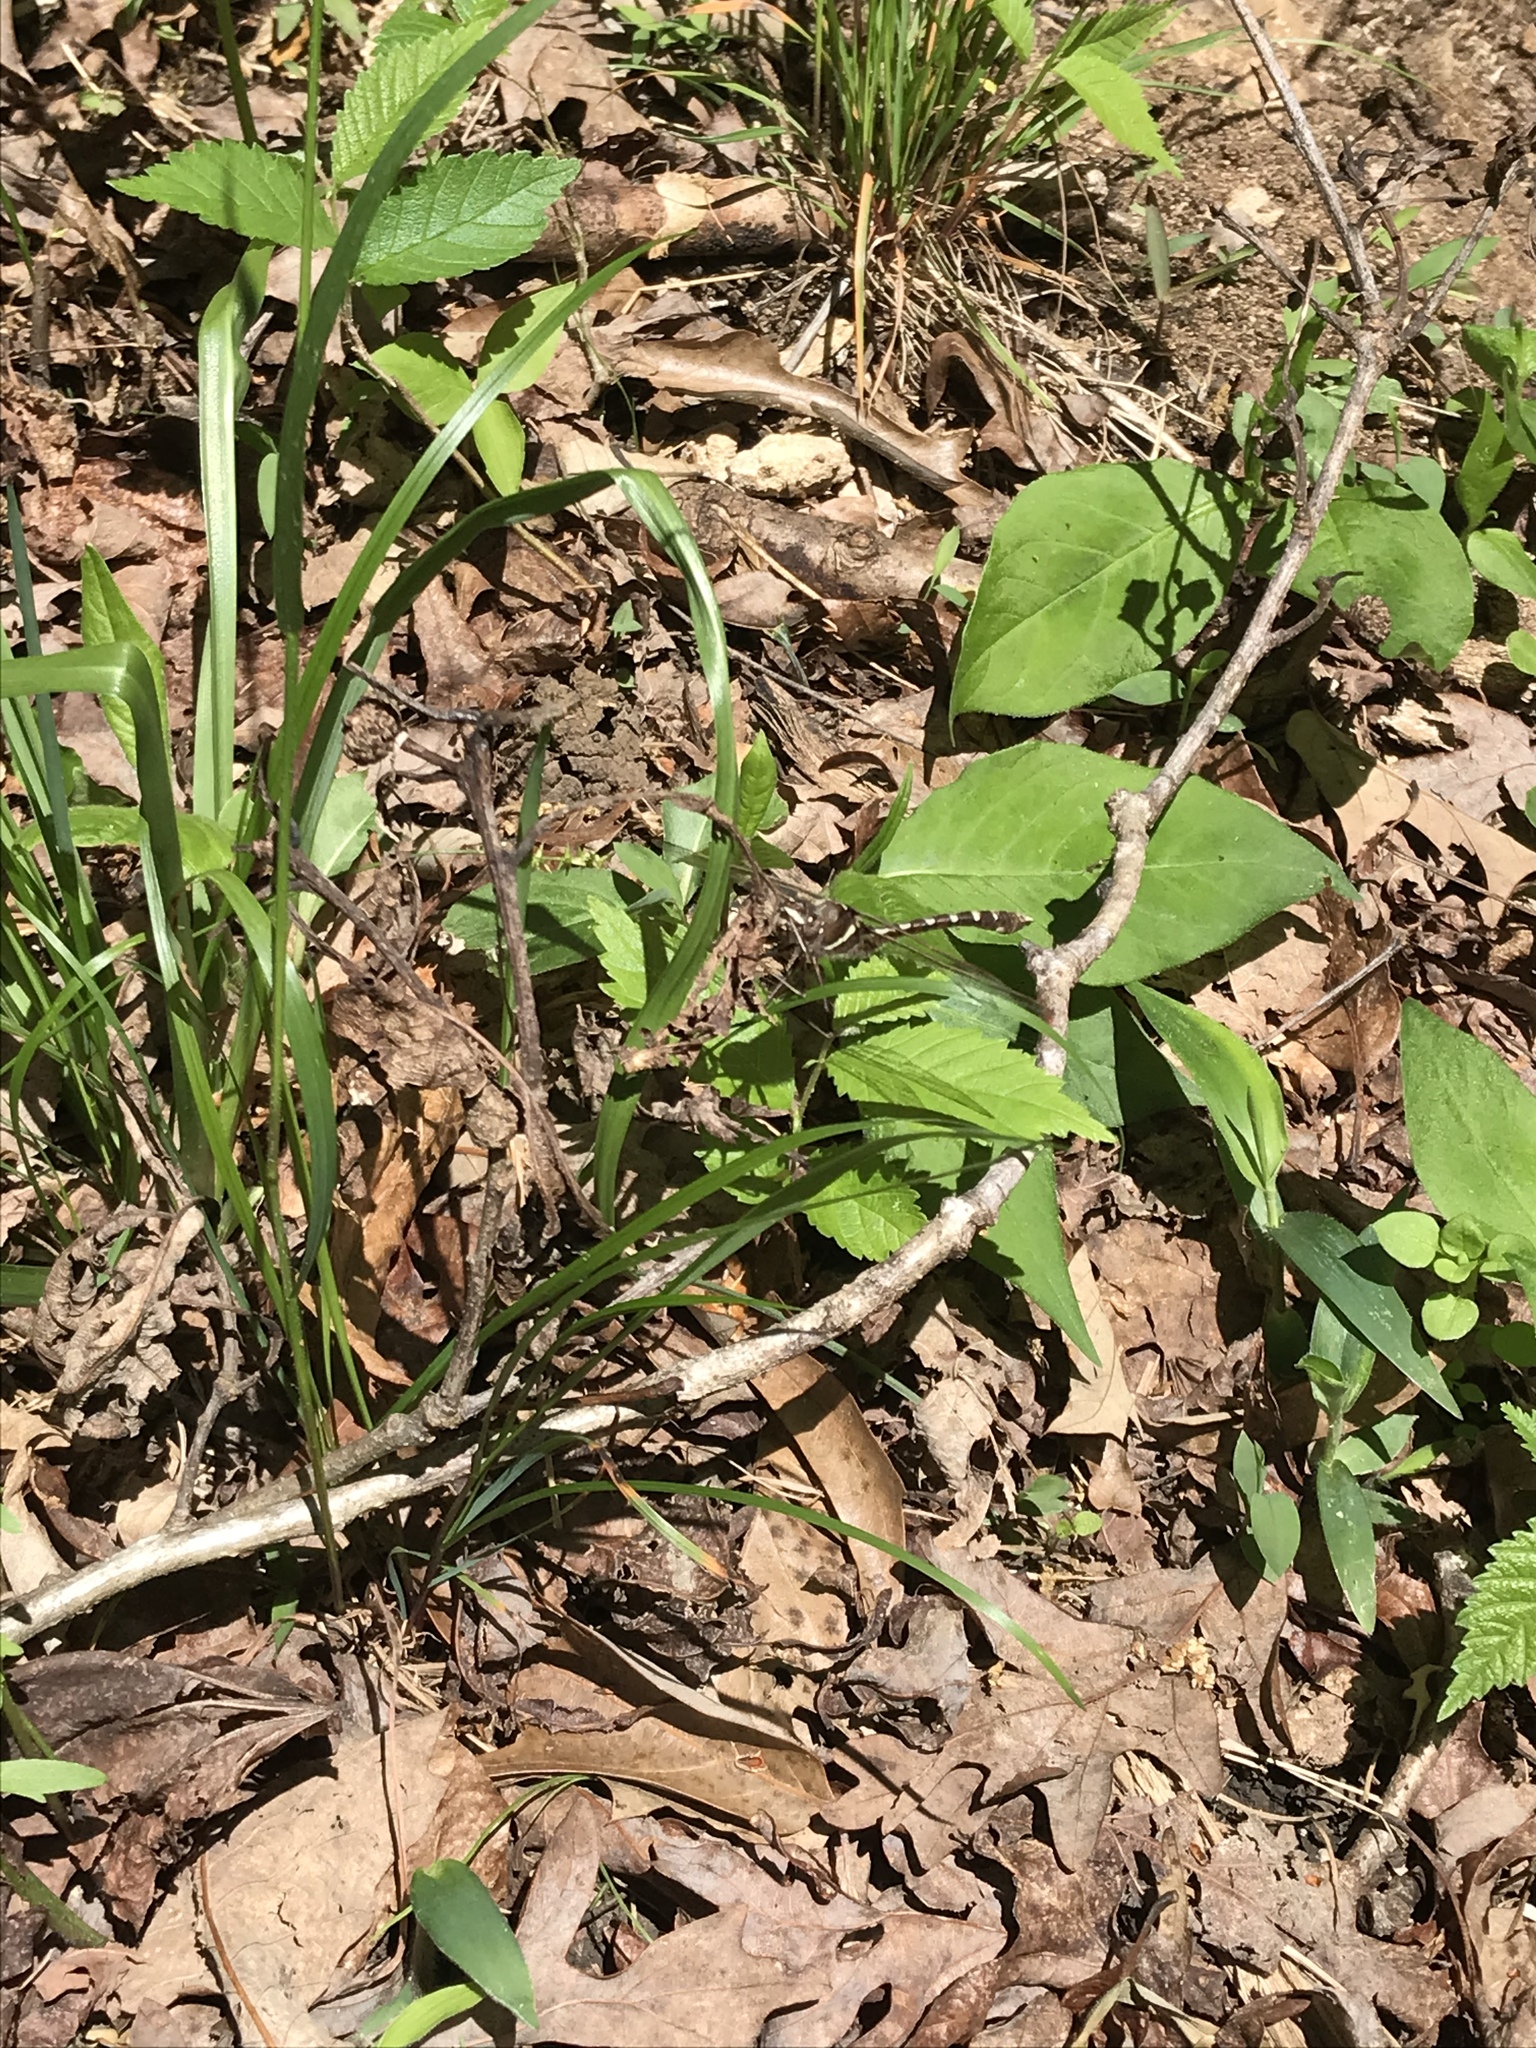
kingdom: Animalia
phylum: Arthropoda
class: Insecta
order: Odonata
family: Macromiidae
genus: Didymops
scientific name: Didymops transversa
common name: Stream cruiser
